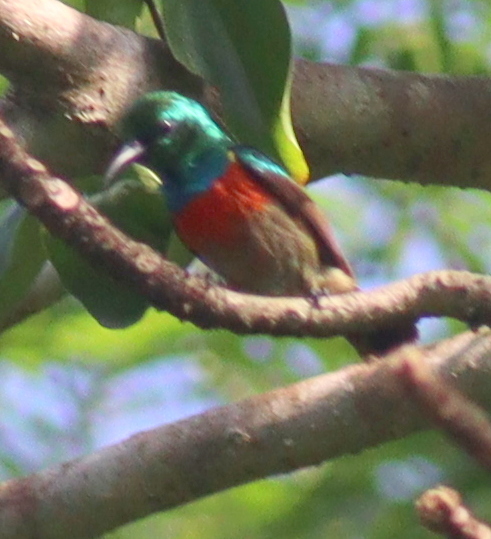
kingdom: Animalia
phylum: Chordata
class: Aves
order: Passeriformes
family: Nectariniidae
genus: Cinnyris
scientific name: Cinnyris chloropygius
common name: Olive-bellied sunbird
